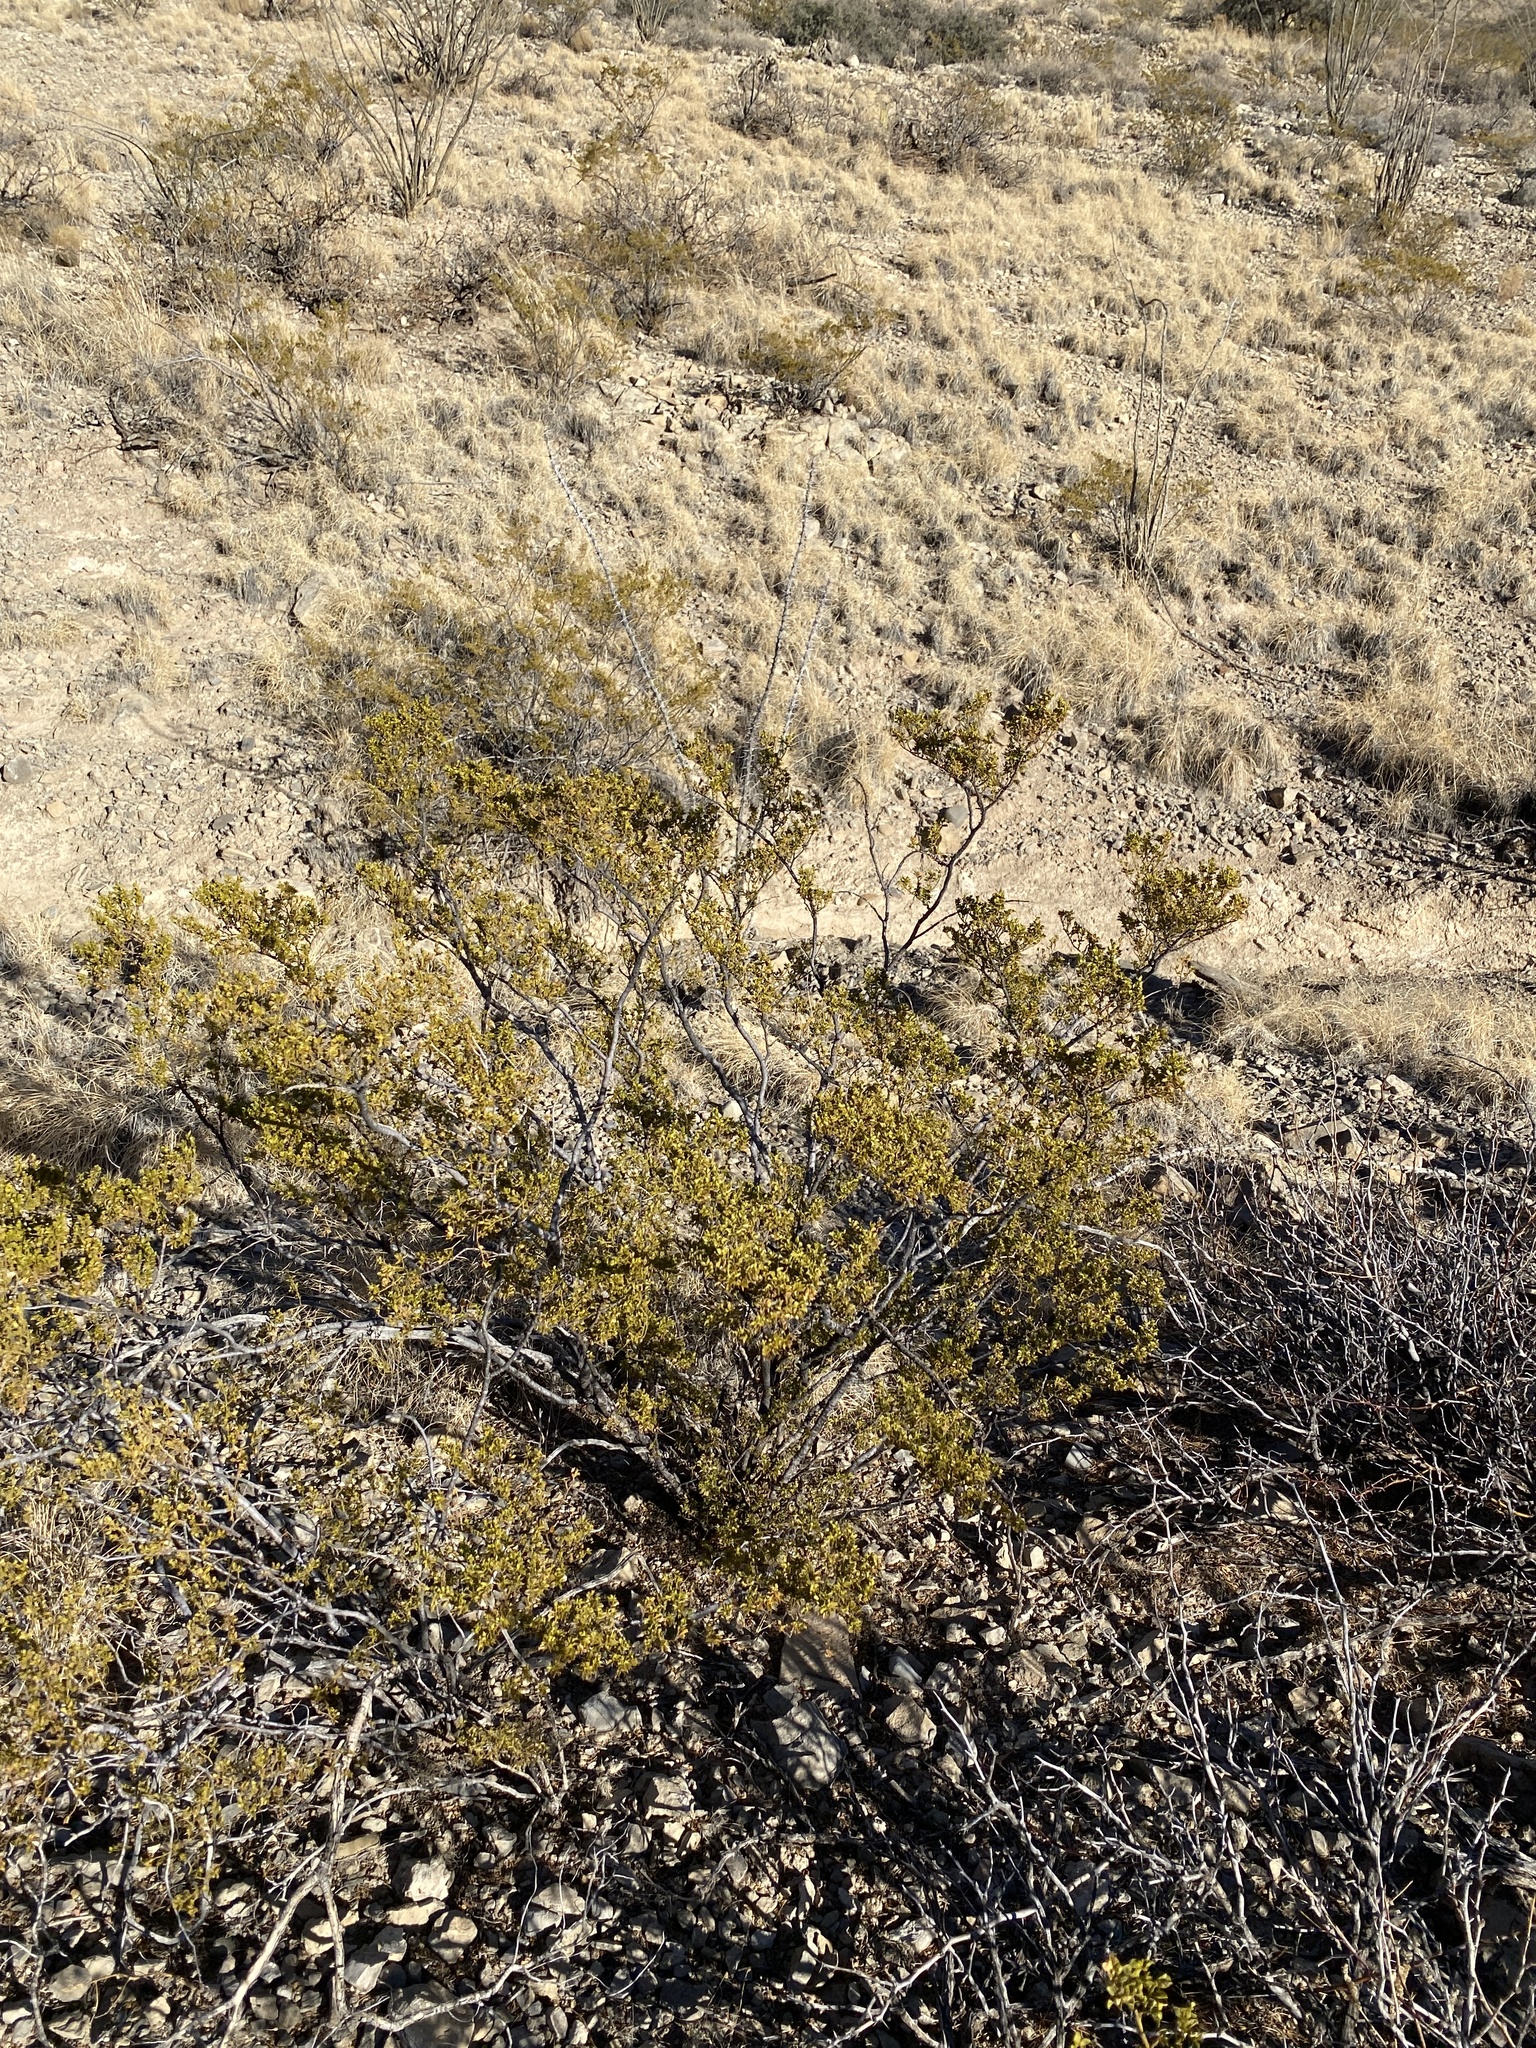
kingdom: Plantae
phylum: Tracheophyta
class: Magnoliopsida
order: Zygophyllales
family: Zygophyllaceae
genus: Larrea
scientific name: Larrea tridentata
